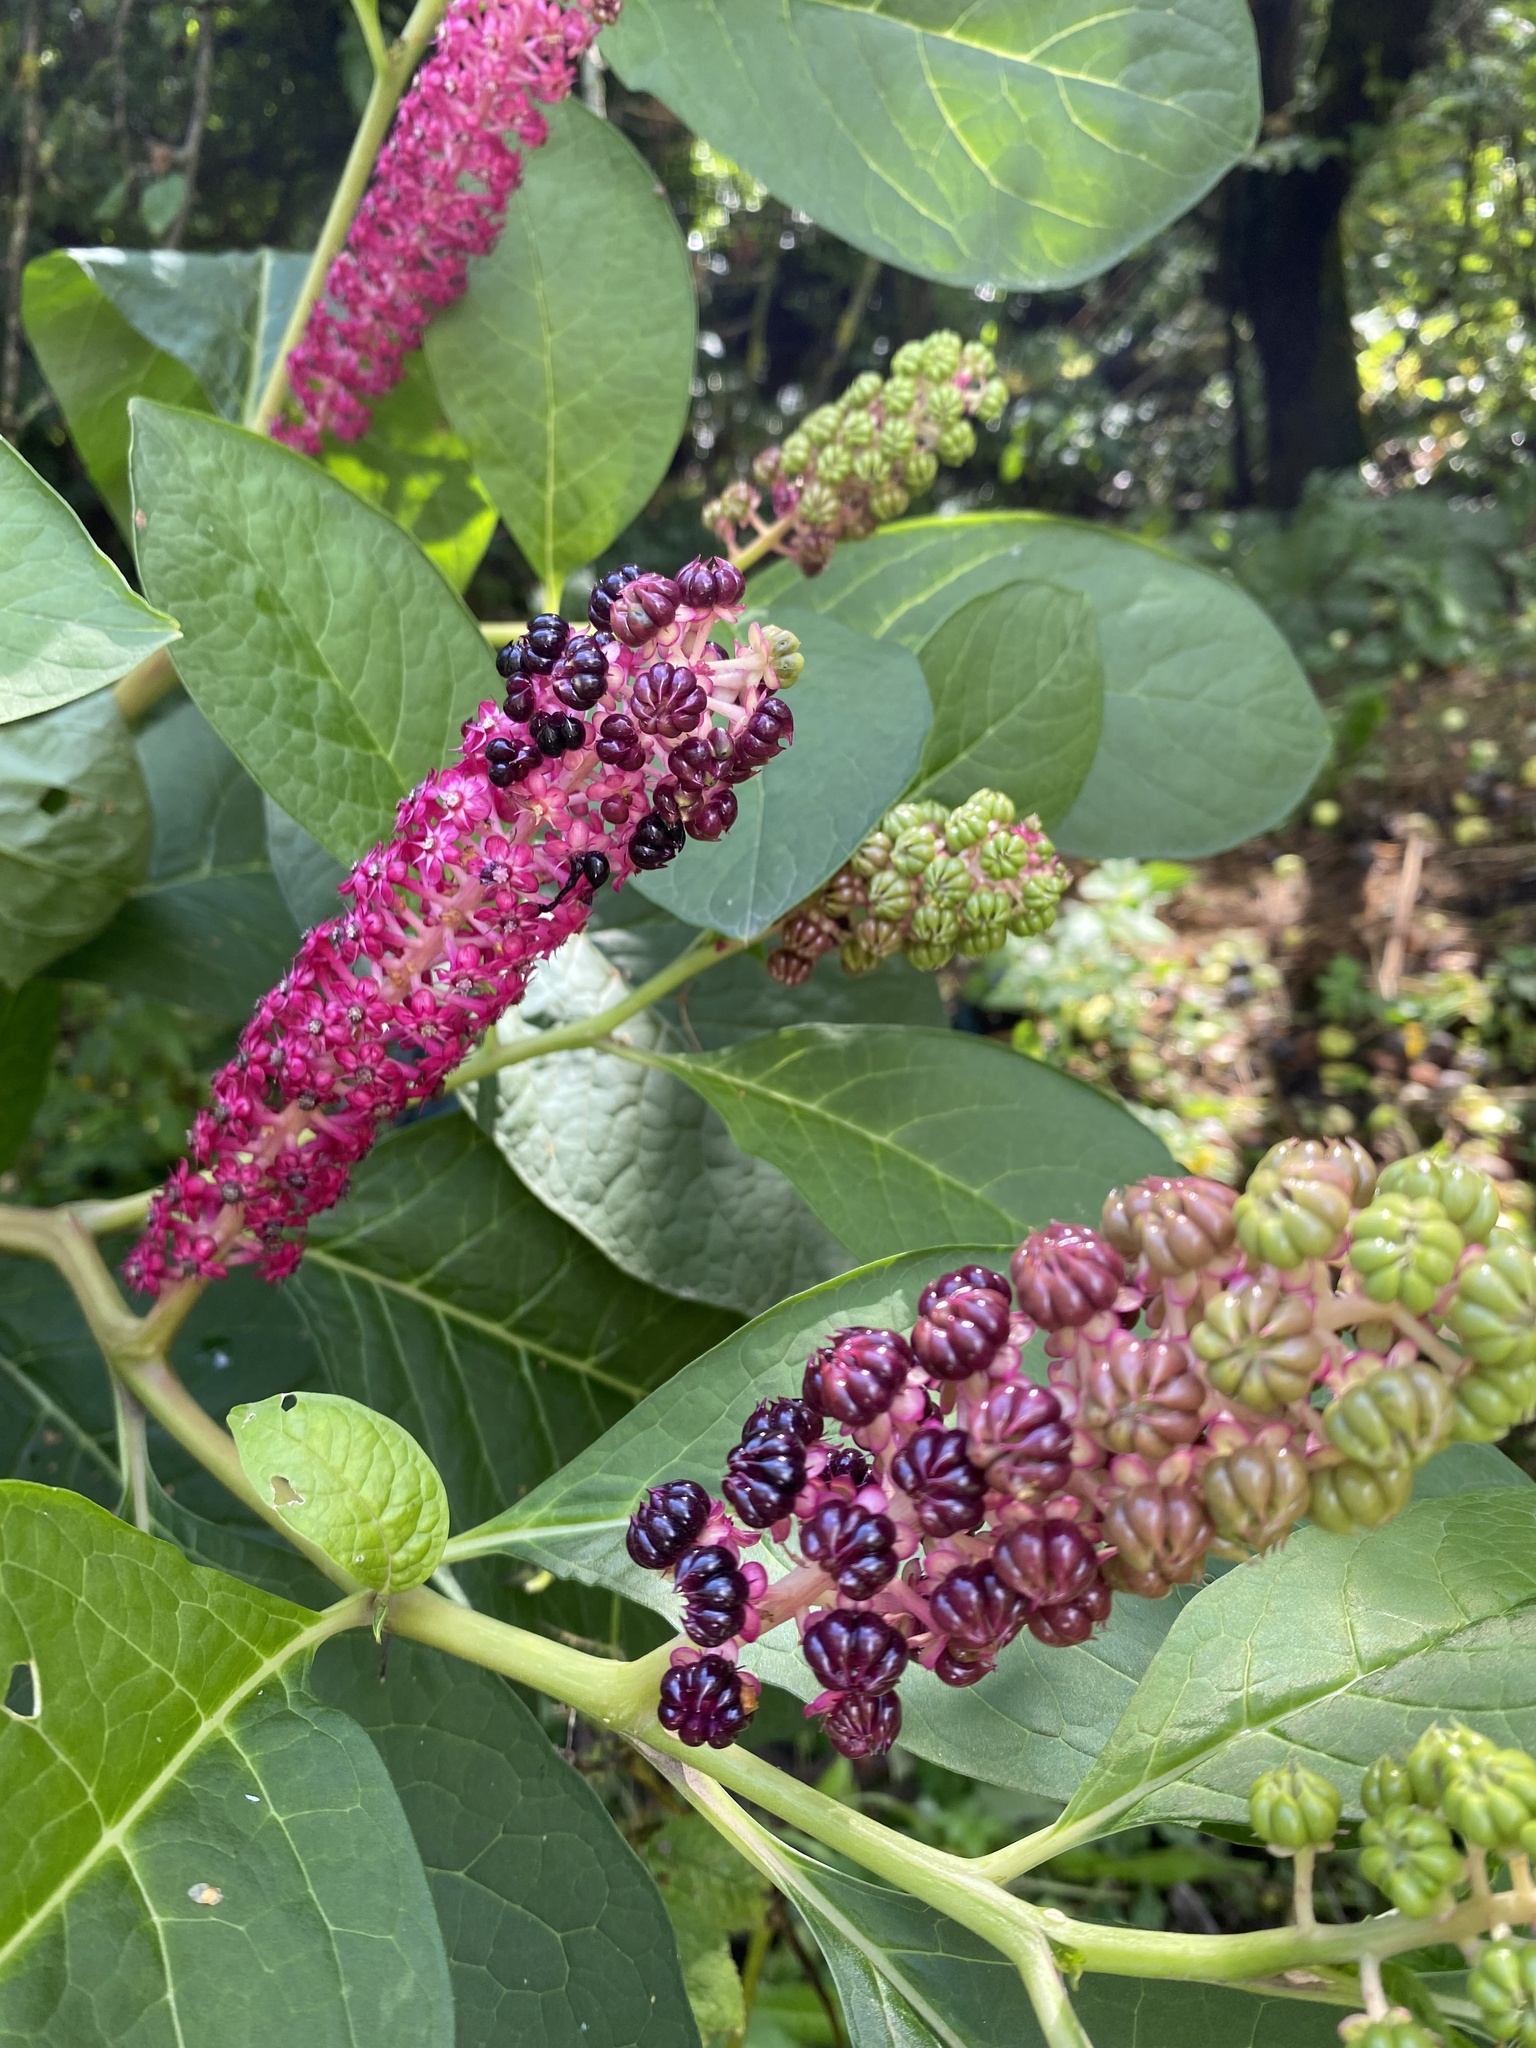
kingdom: Plantae
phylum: Tracheophyta
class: Magnoliopsida
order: Caryophyllales
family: Phytolaccaceae
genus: Phytolacca
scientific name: Phytolacca acinosa
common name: Indian pokeweed
